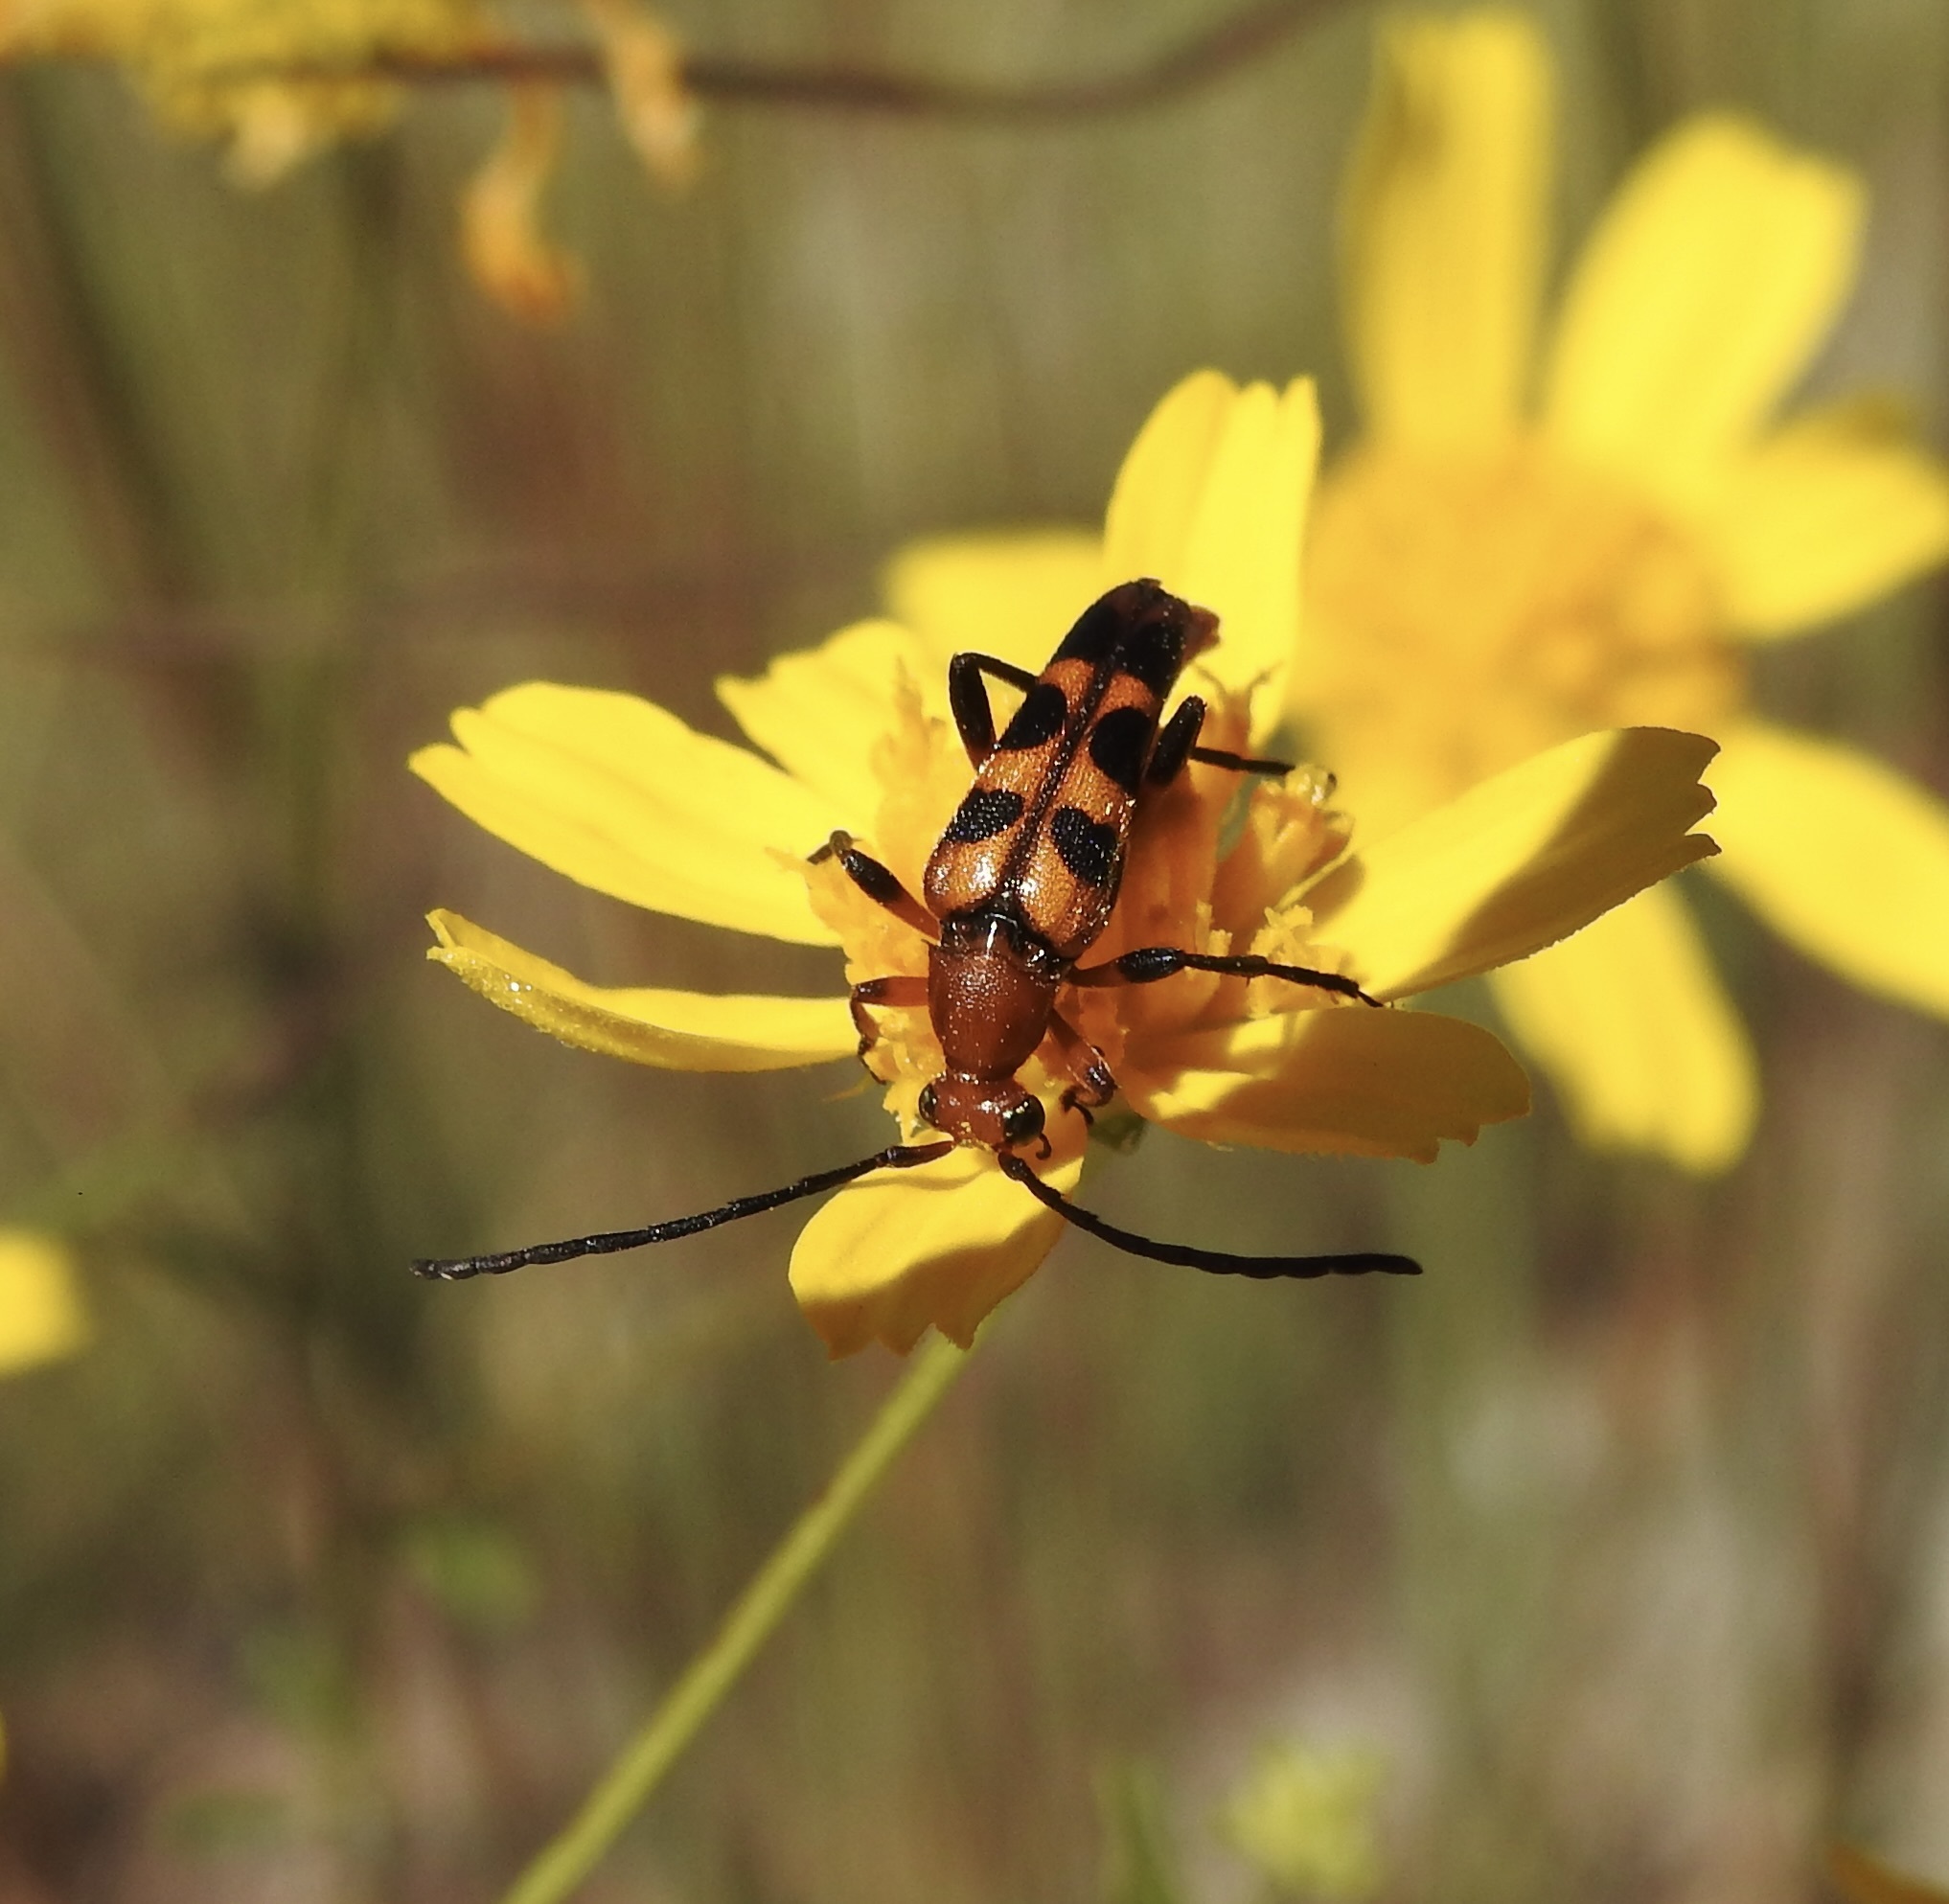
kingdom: Animalia
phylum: Arthropoda
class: Insecta
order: Coleoptera
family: Cerambycidae
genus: Strangalia
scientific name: Strangalia sexnotata
